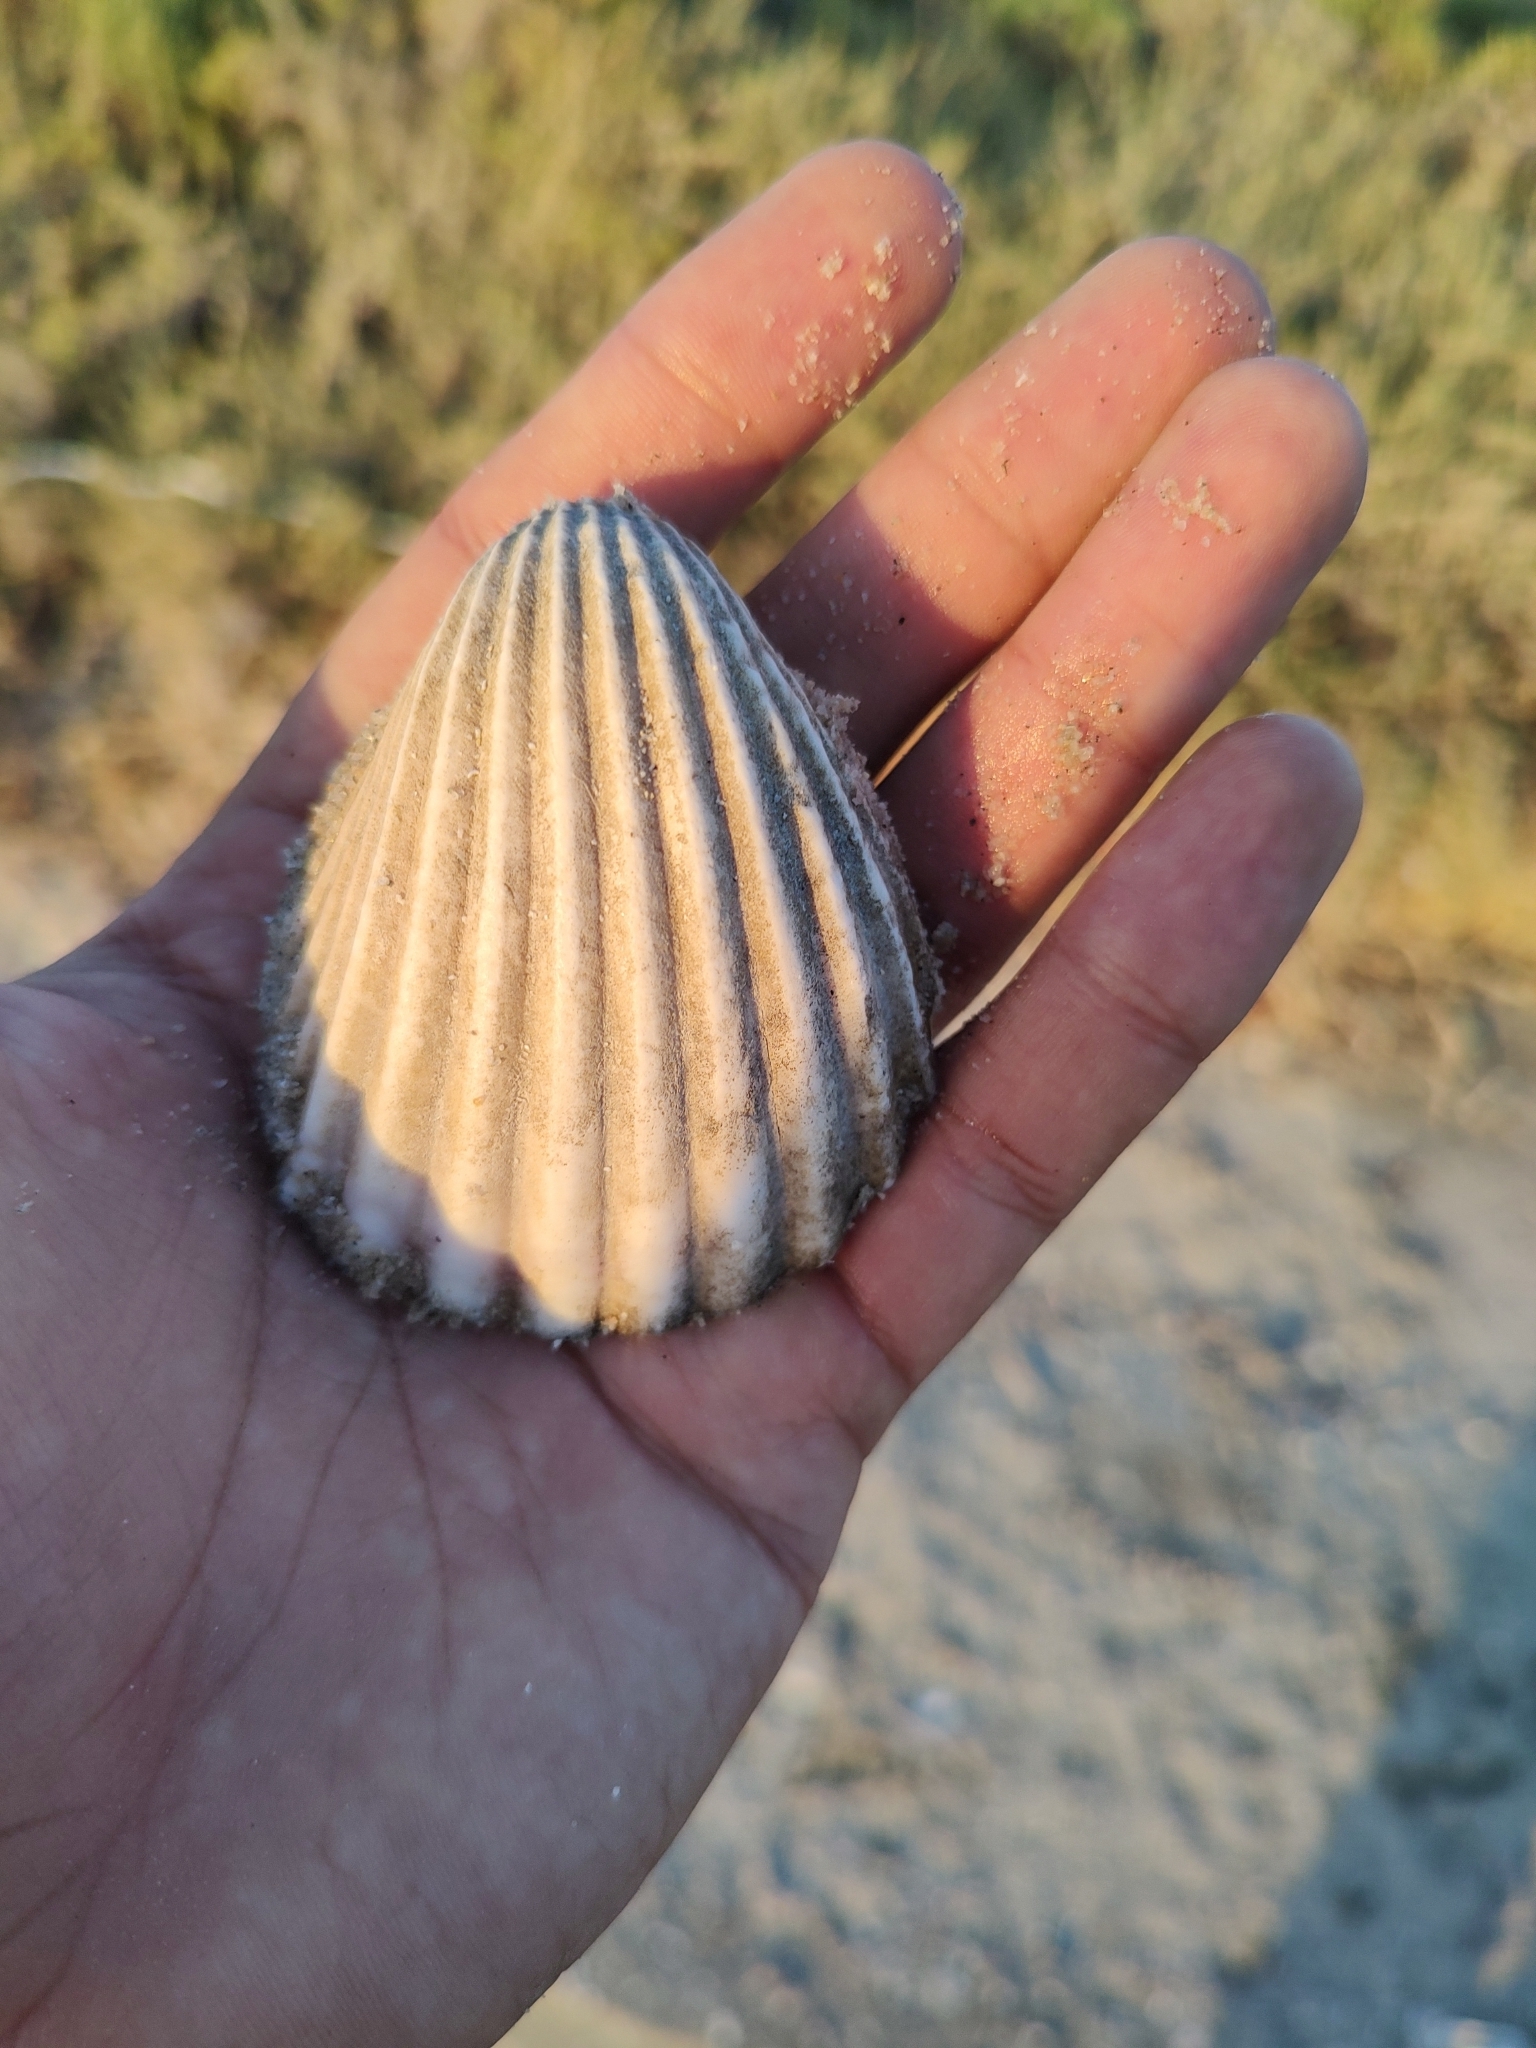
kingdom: Animalia
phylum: Mollusca
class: Bivalvia
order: Cardiida
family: Cardiidae
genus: Trachycardium
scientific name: Trachycardium procerum
